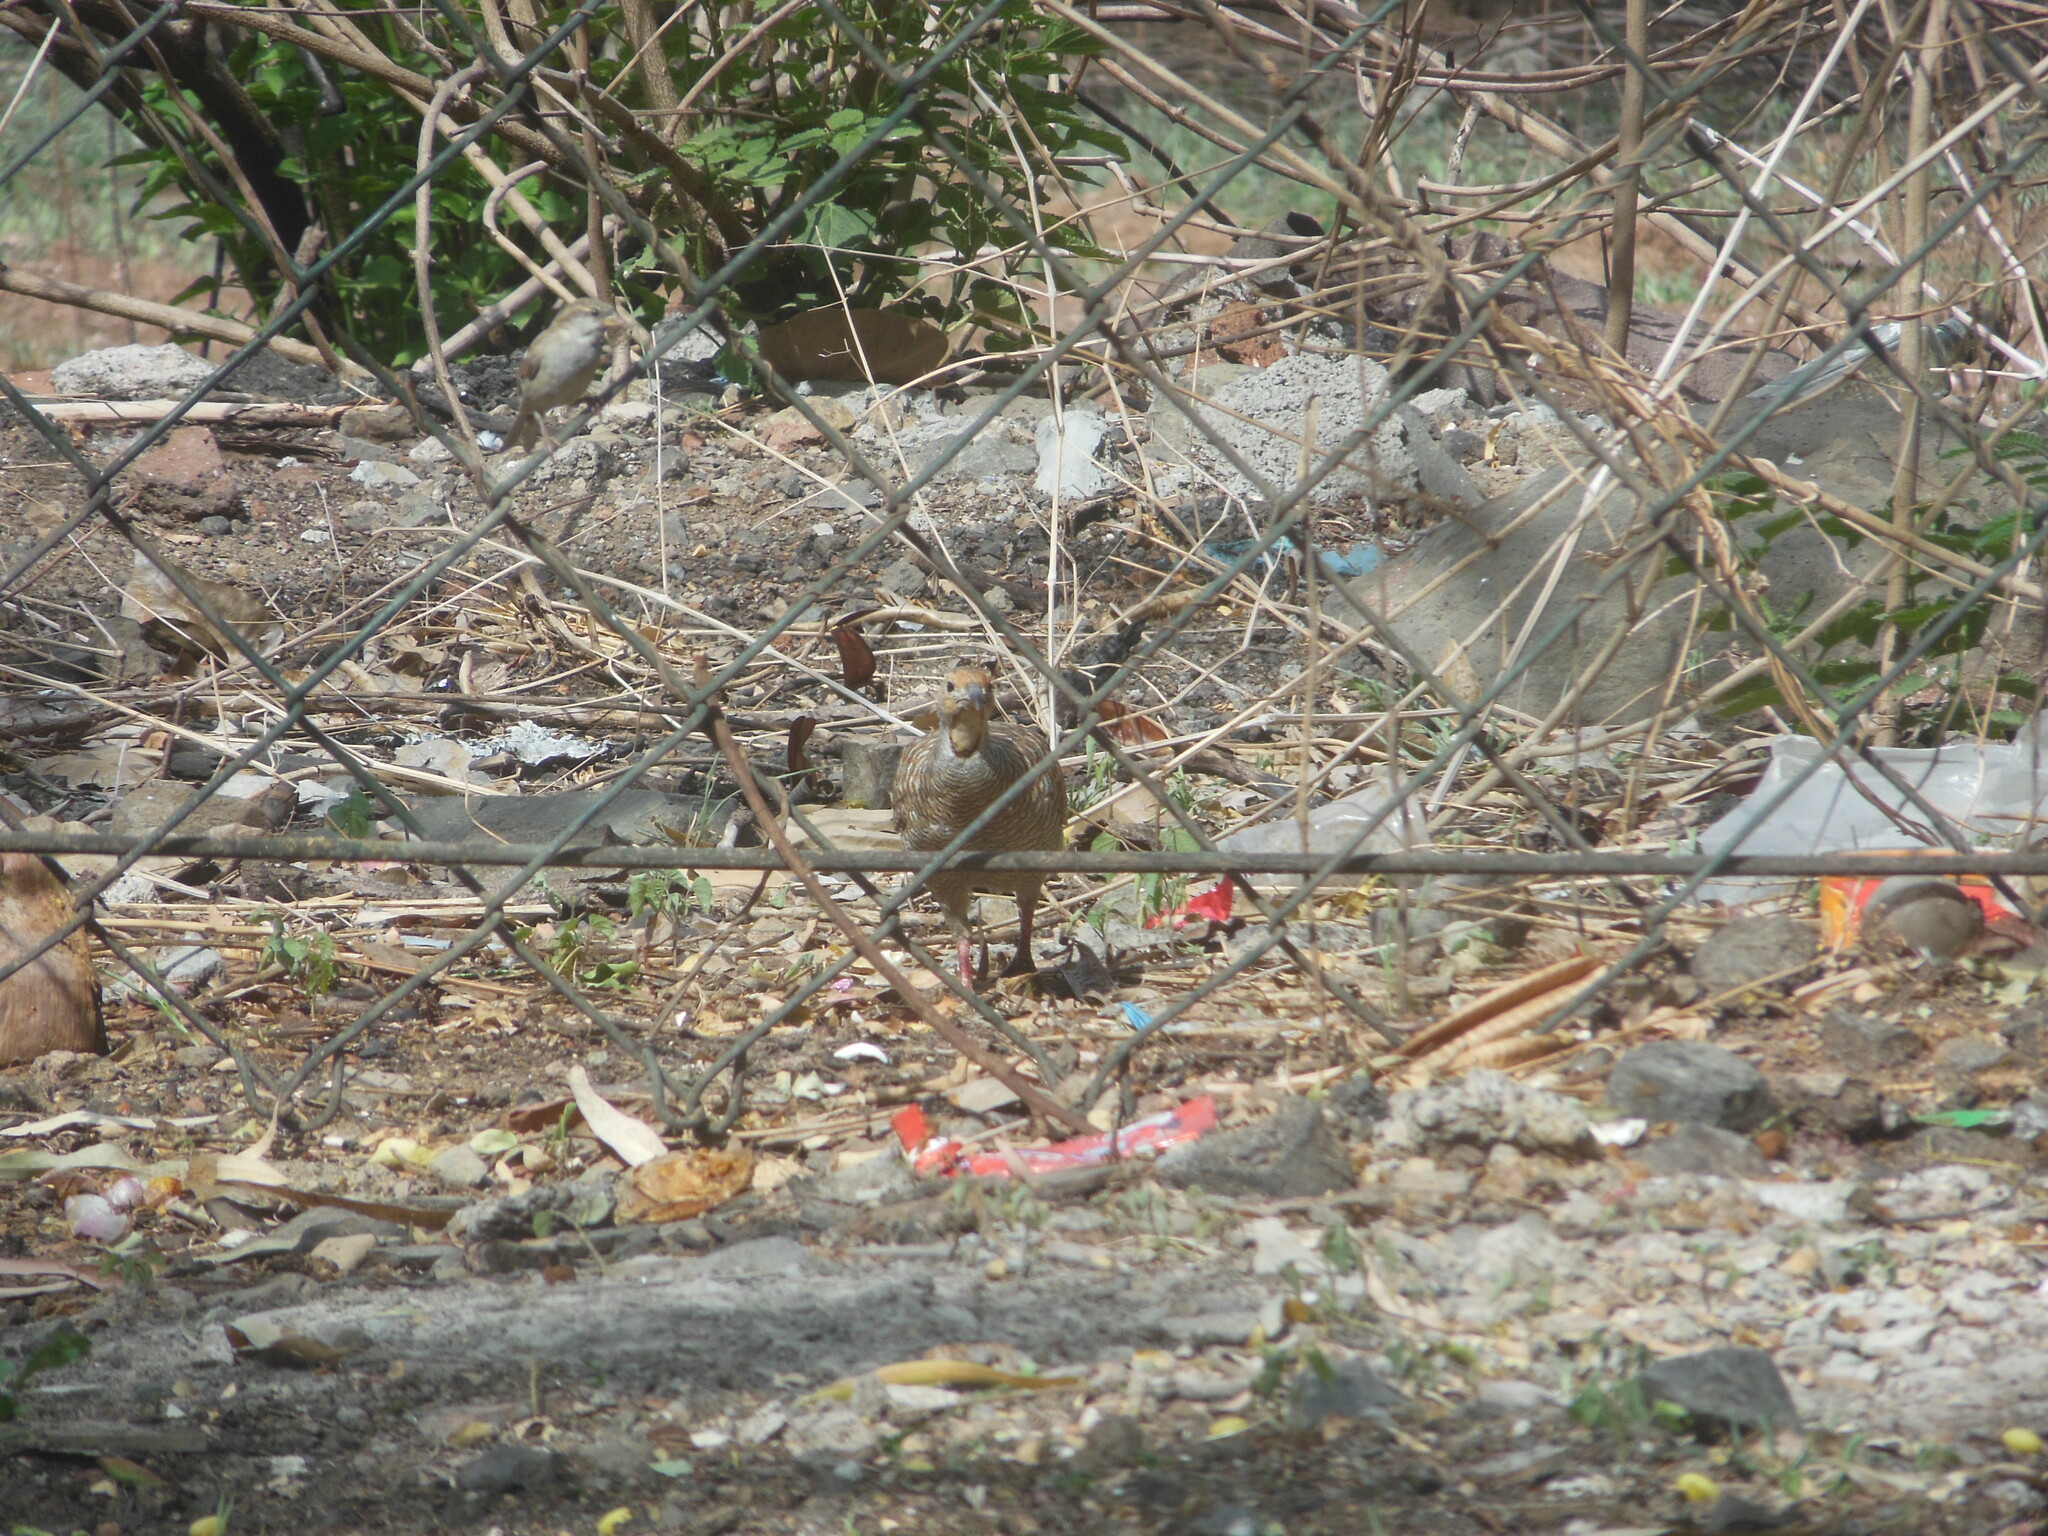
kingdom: Animalia
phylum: Chordata
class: Aves
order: Galliformes
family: Phasianidae
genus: Ortygornis
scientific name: Ortygornis pondicerianus
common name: Grey francolin
